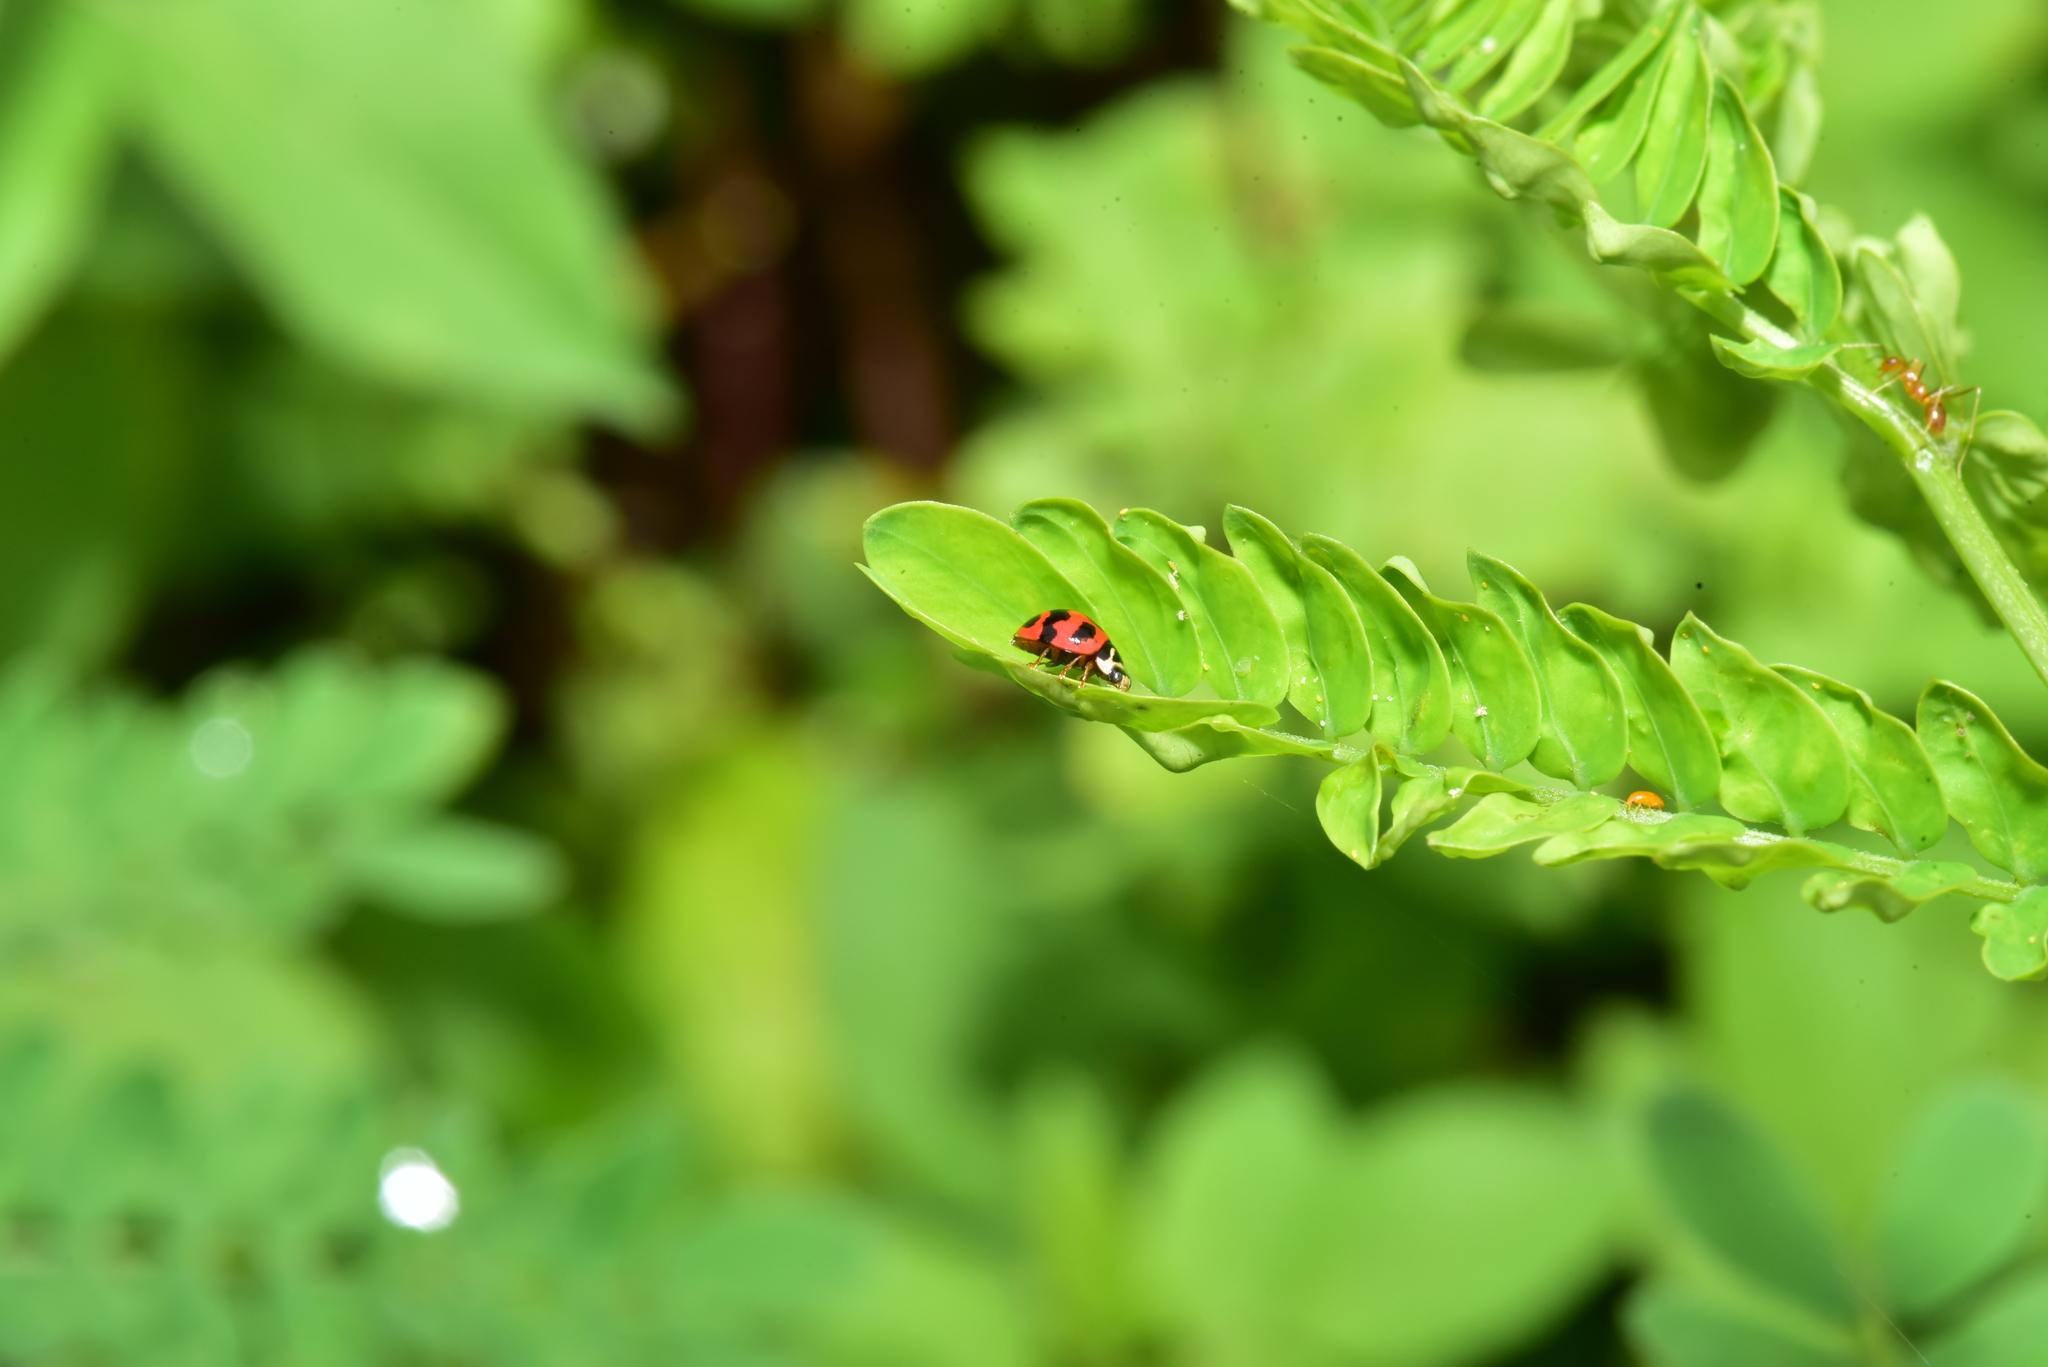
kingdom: Animalia
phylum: Arthropoda
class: Insecta
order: Coleoptera
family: Coccinellidae
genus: Cheilomenes
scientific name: Cheilomenes sexmaculata
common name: Ladybird beetle
